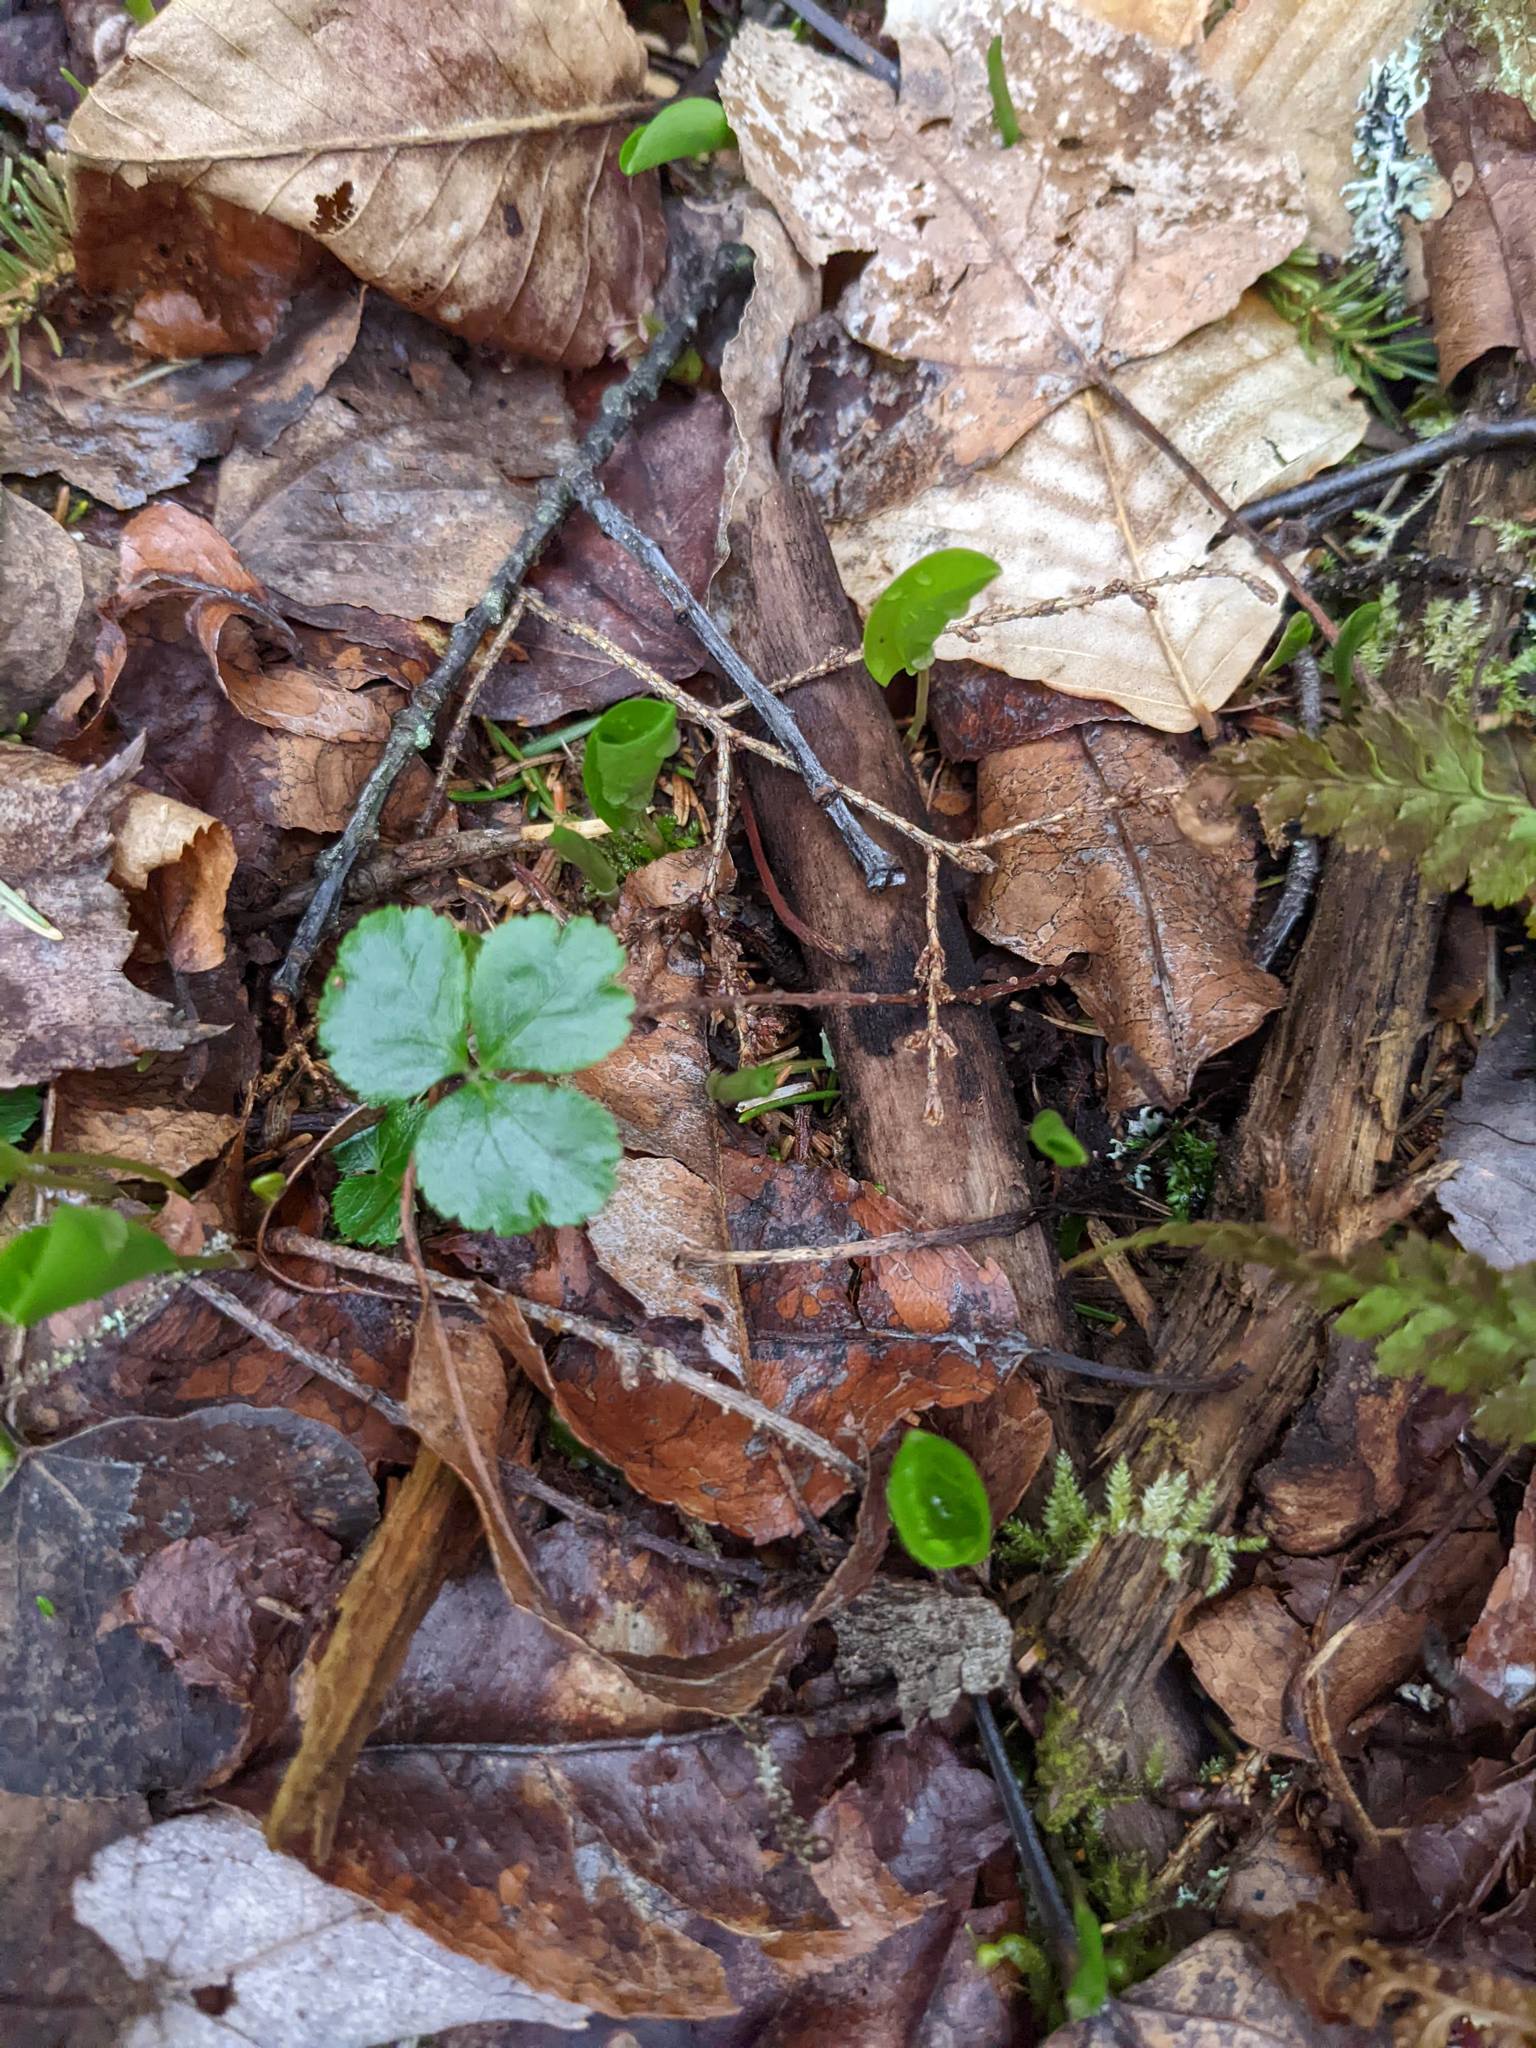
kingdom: Plantae
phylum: Tracheophyta
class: Magnoliopsida
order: Ranunculales
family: Ranunculaceae
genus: Coptis
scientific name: Coptis trifolia
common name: Canker-root
